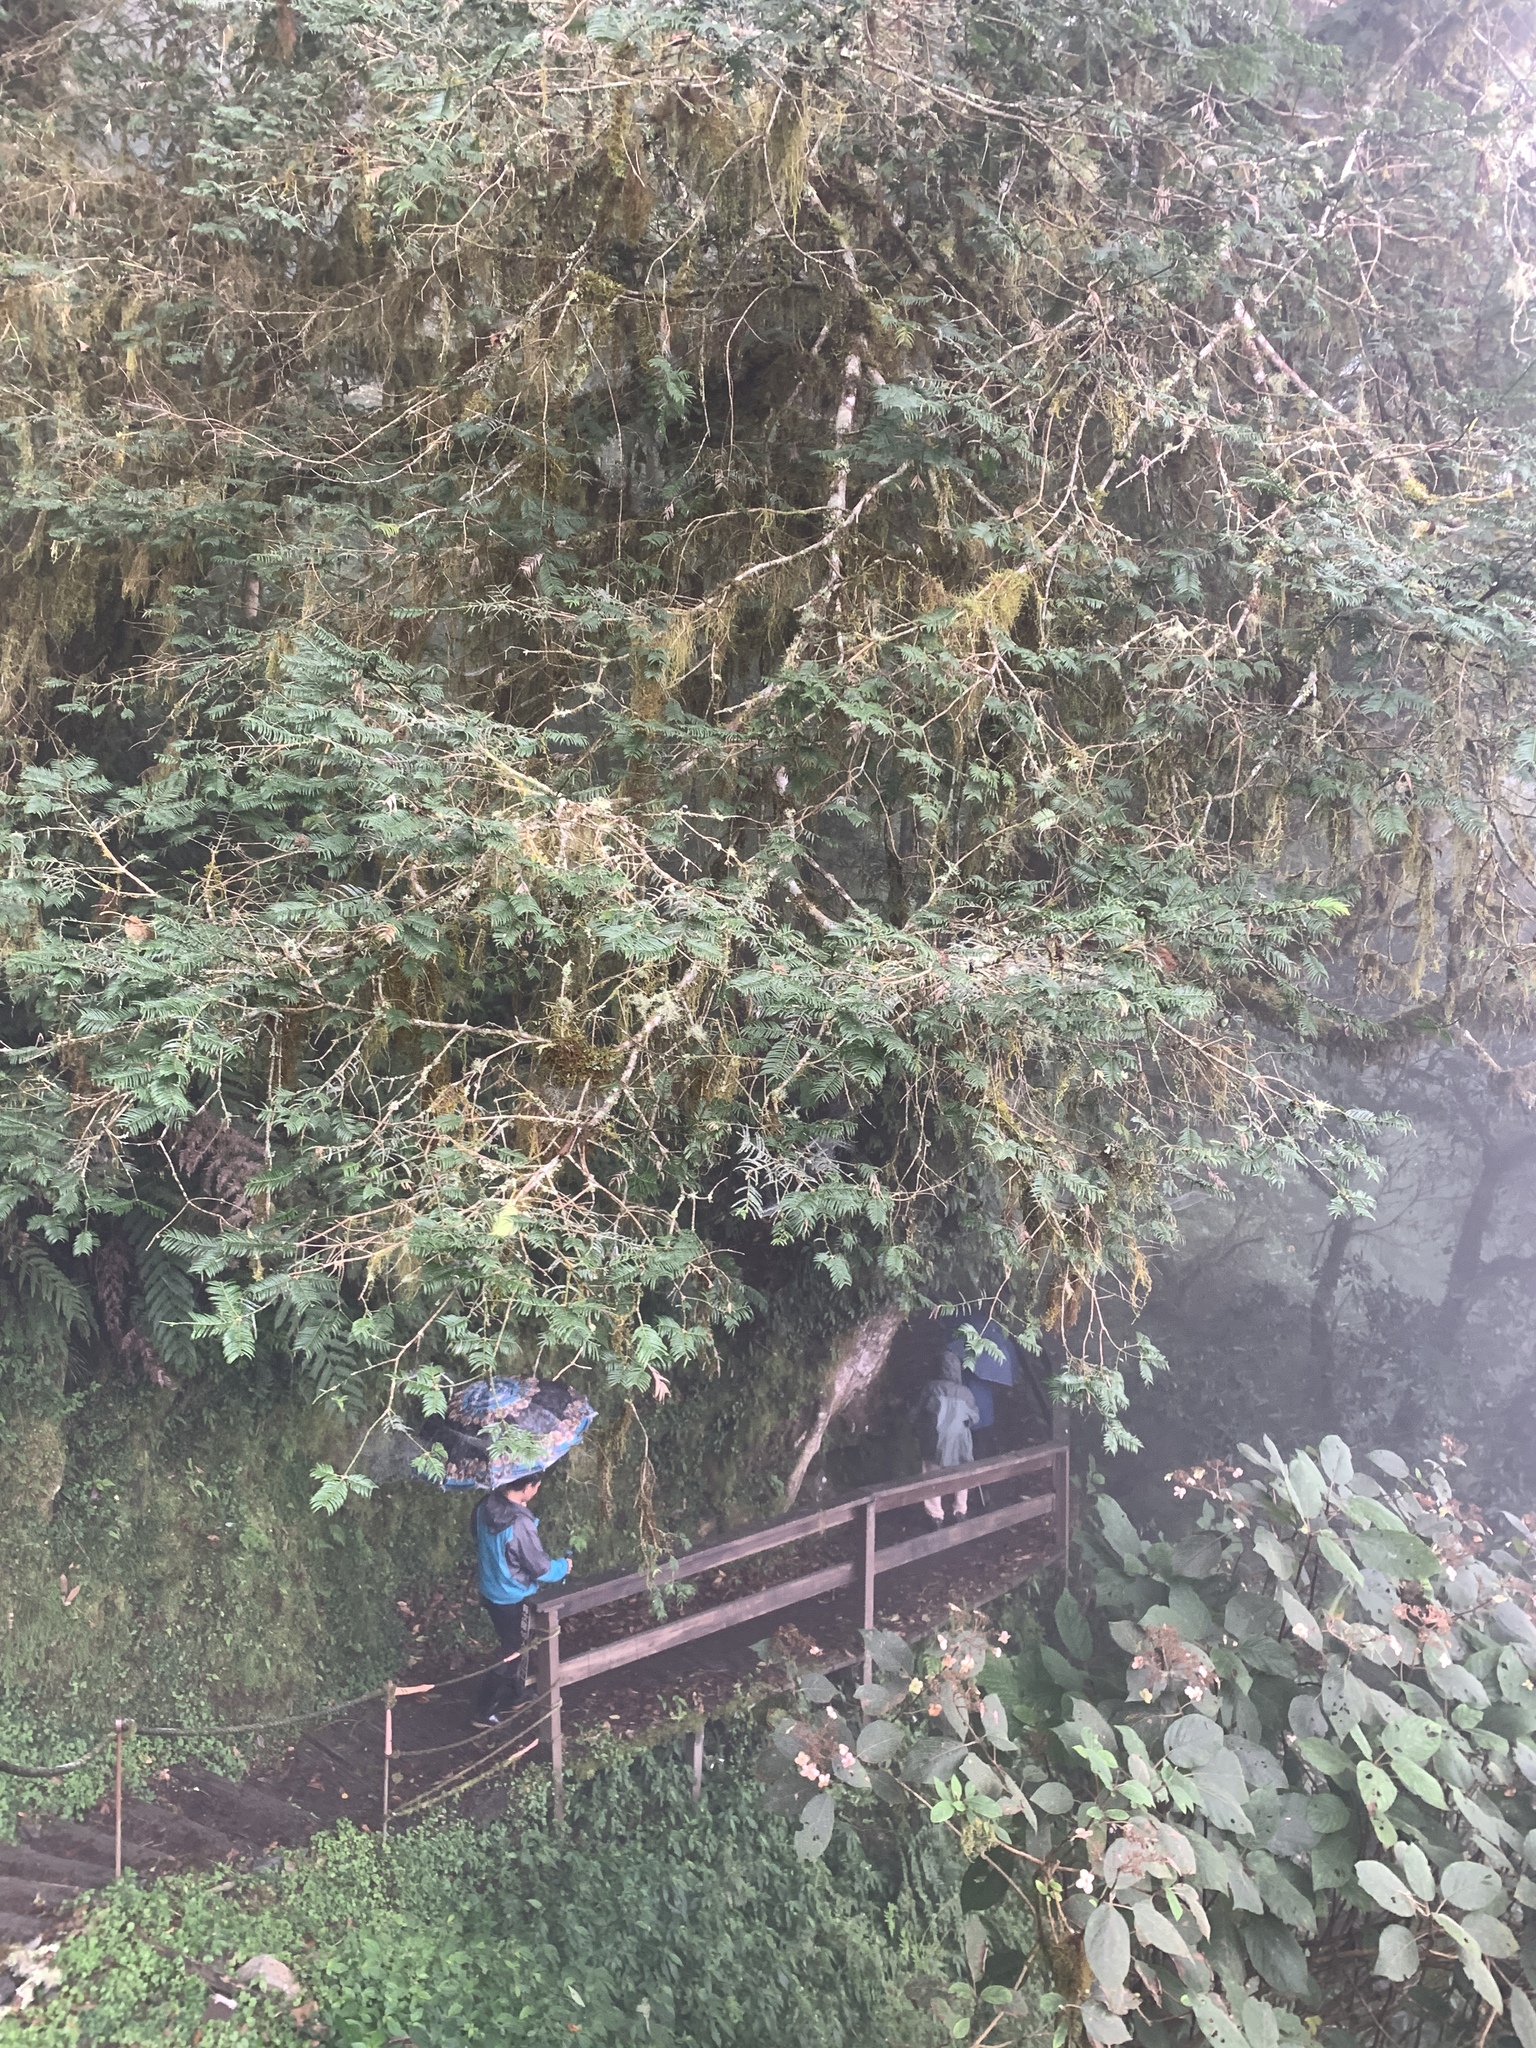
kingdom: Plantae
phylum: Tracheophyta
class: Pinopsida
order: Pinales
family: Cephalotaxaceae
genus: Cephalotaxus
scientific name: Cephalotaxus harringtonii
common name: Harrington's plum yew
